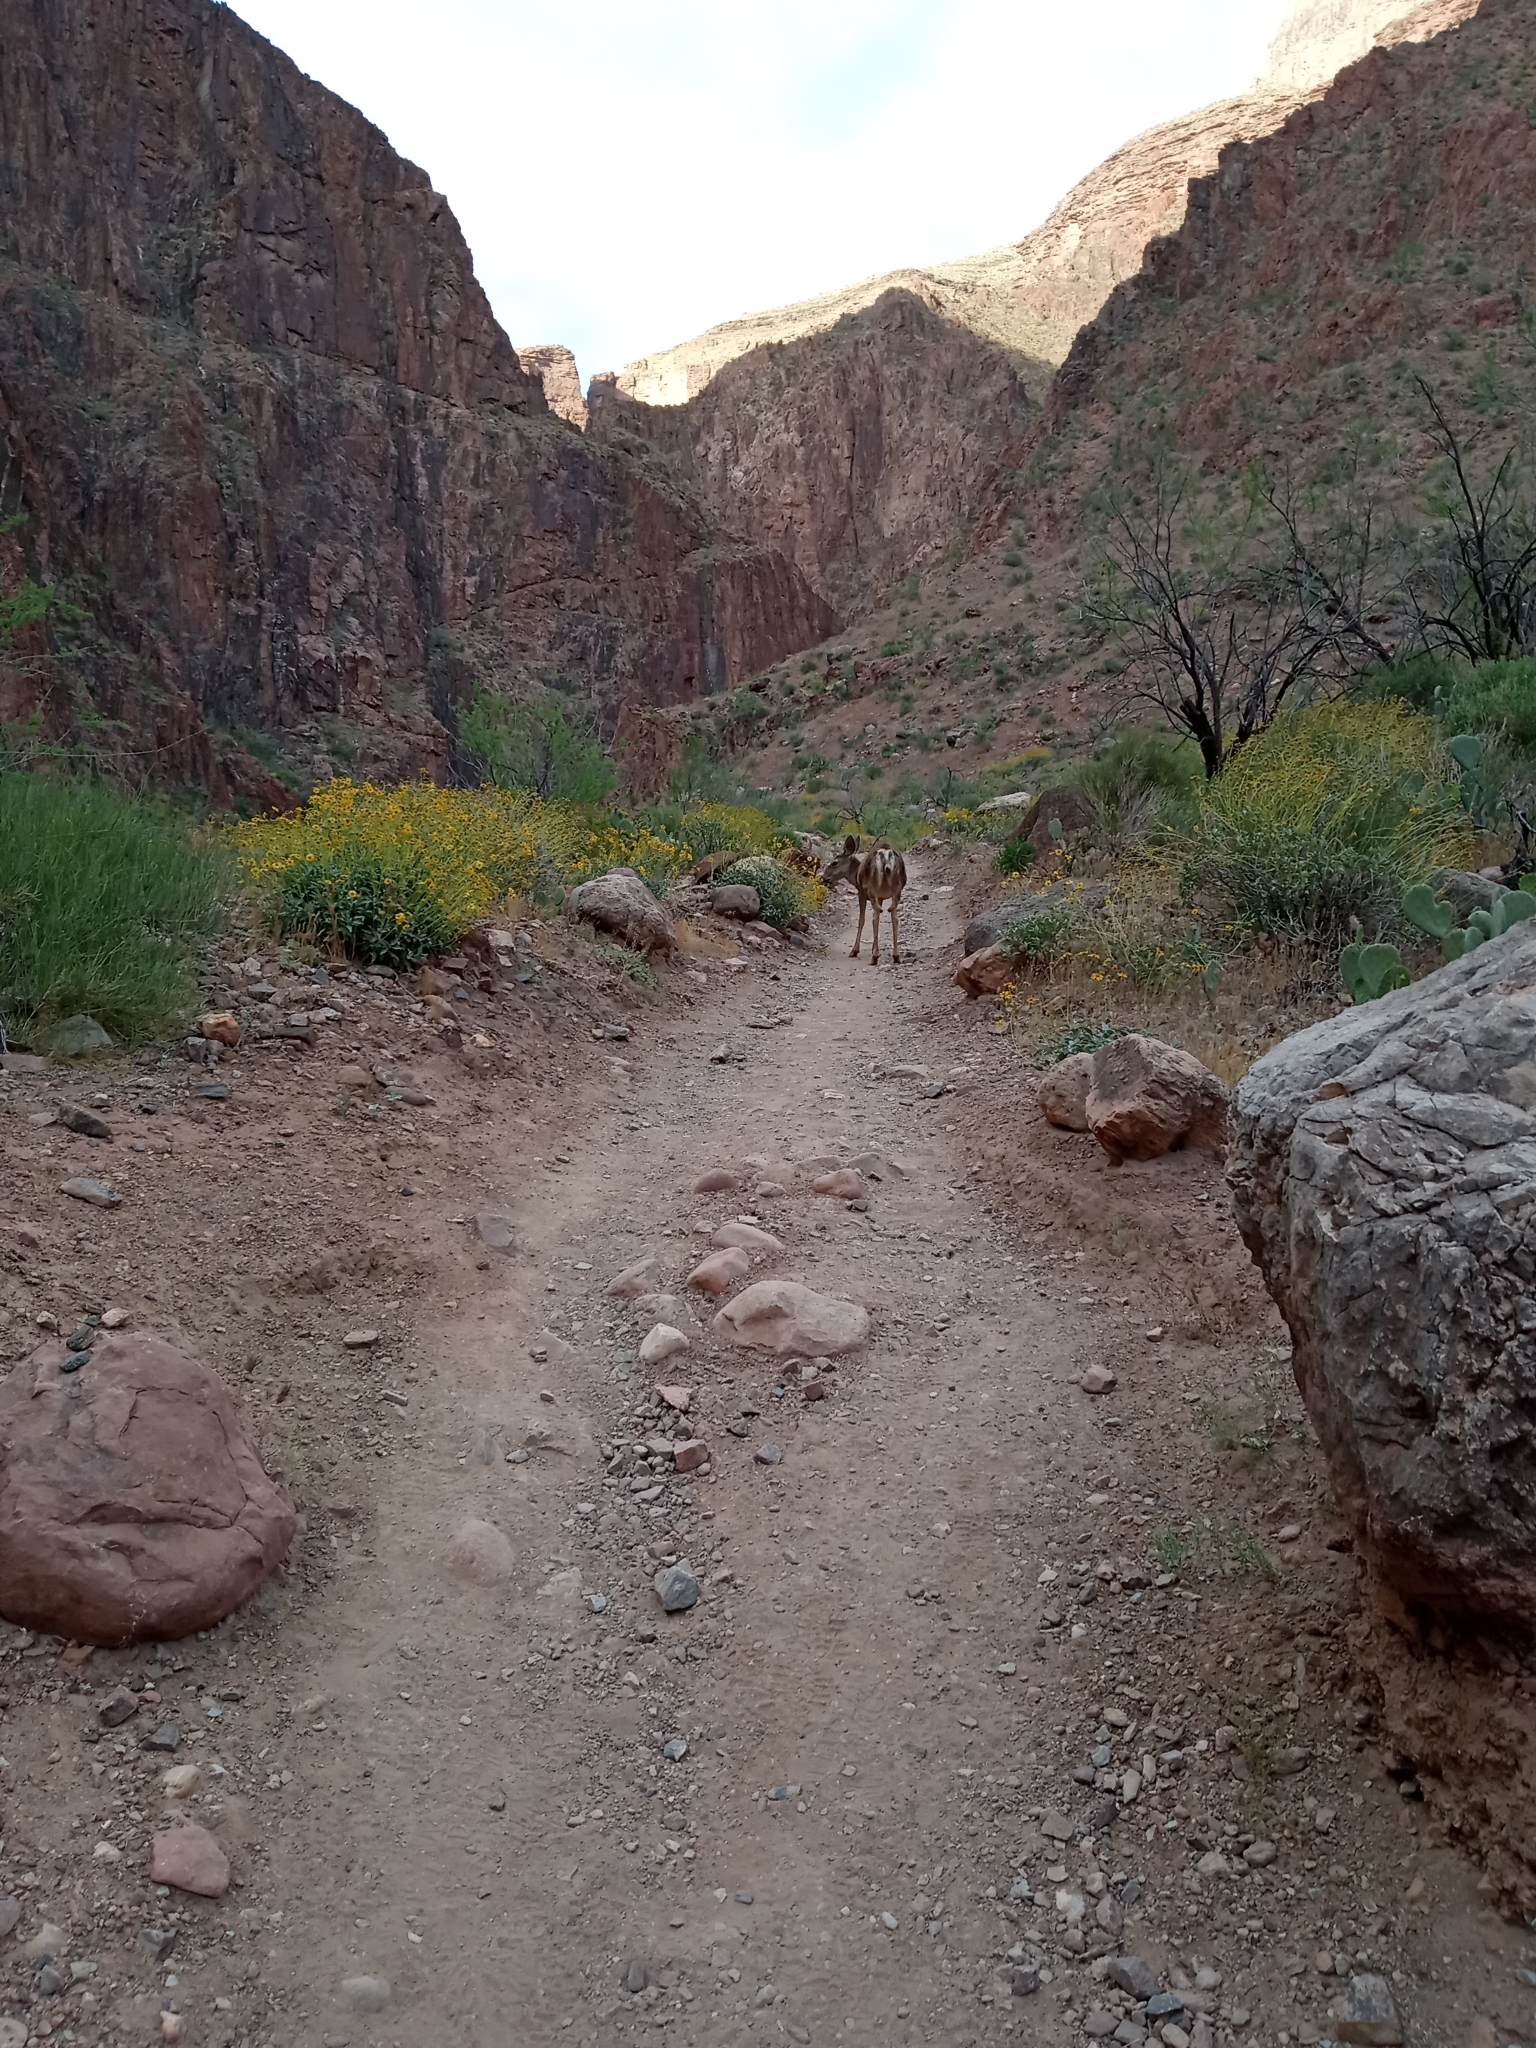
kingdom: Animalia
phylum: Chordata
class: Mammalia
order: Artiodactyla
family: Cervidae
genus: Odocoileus
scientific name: Odocoileus hemionus
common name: Mule deer
